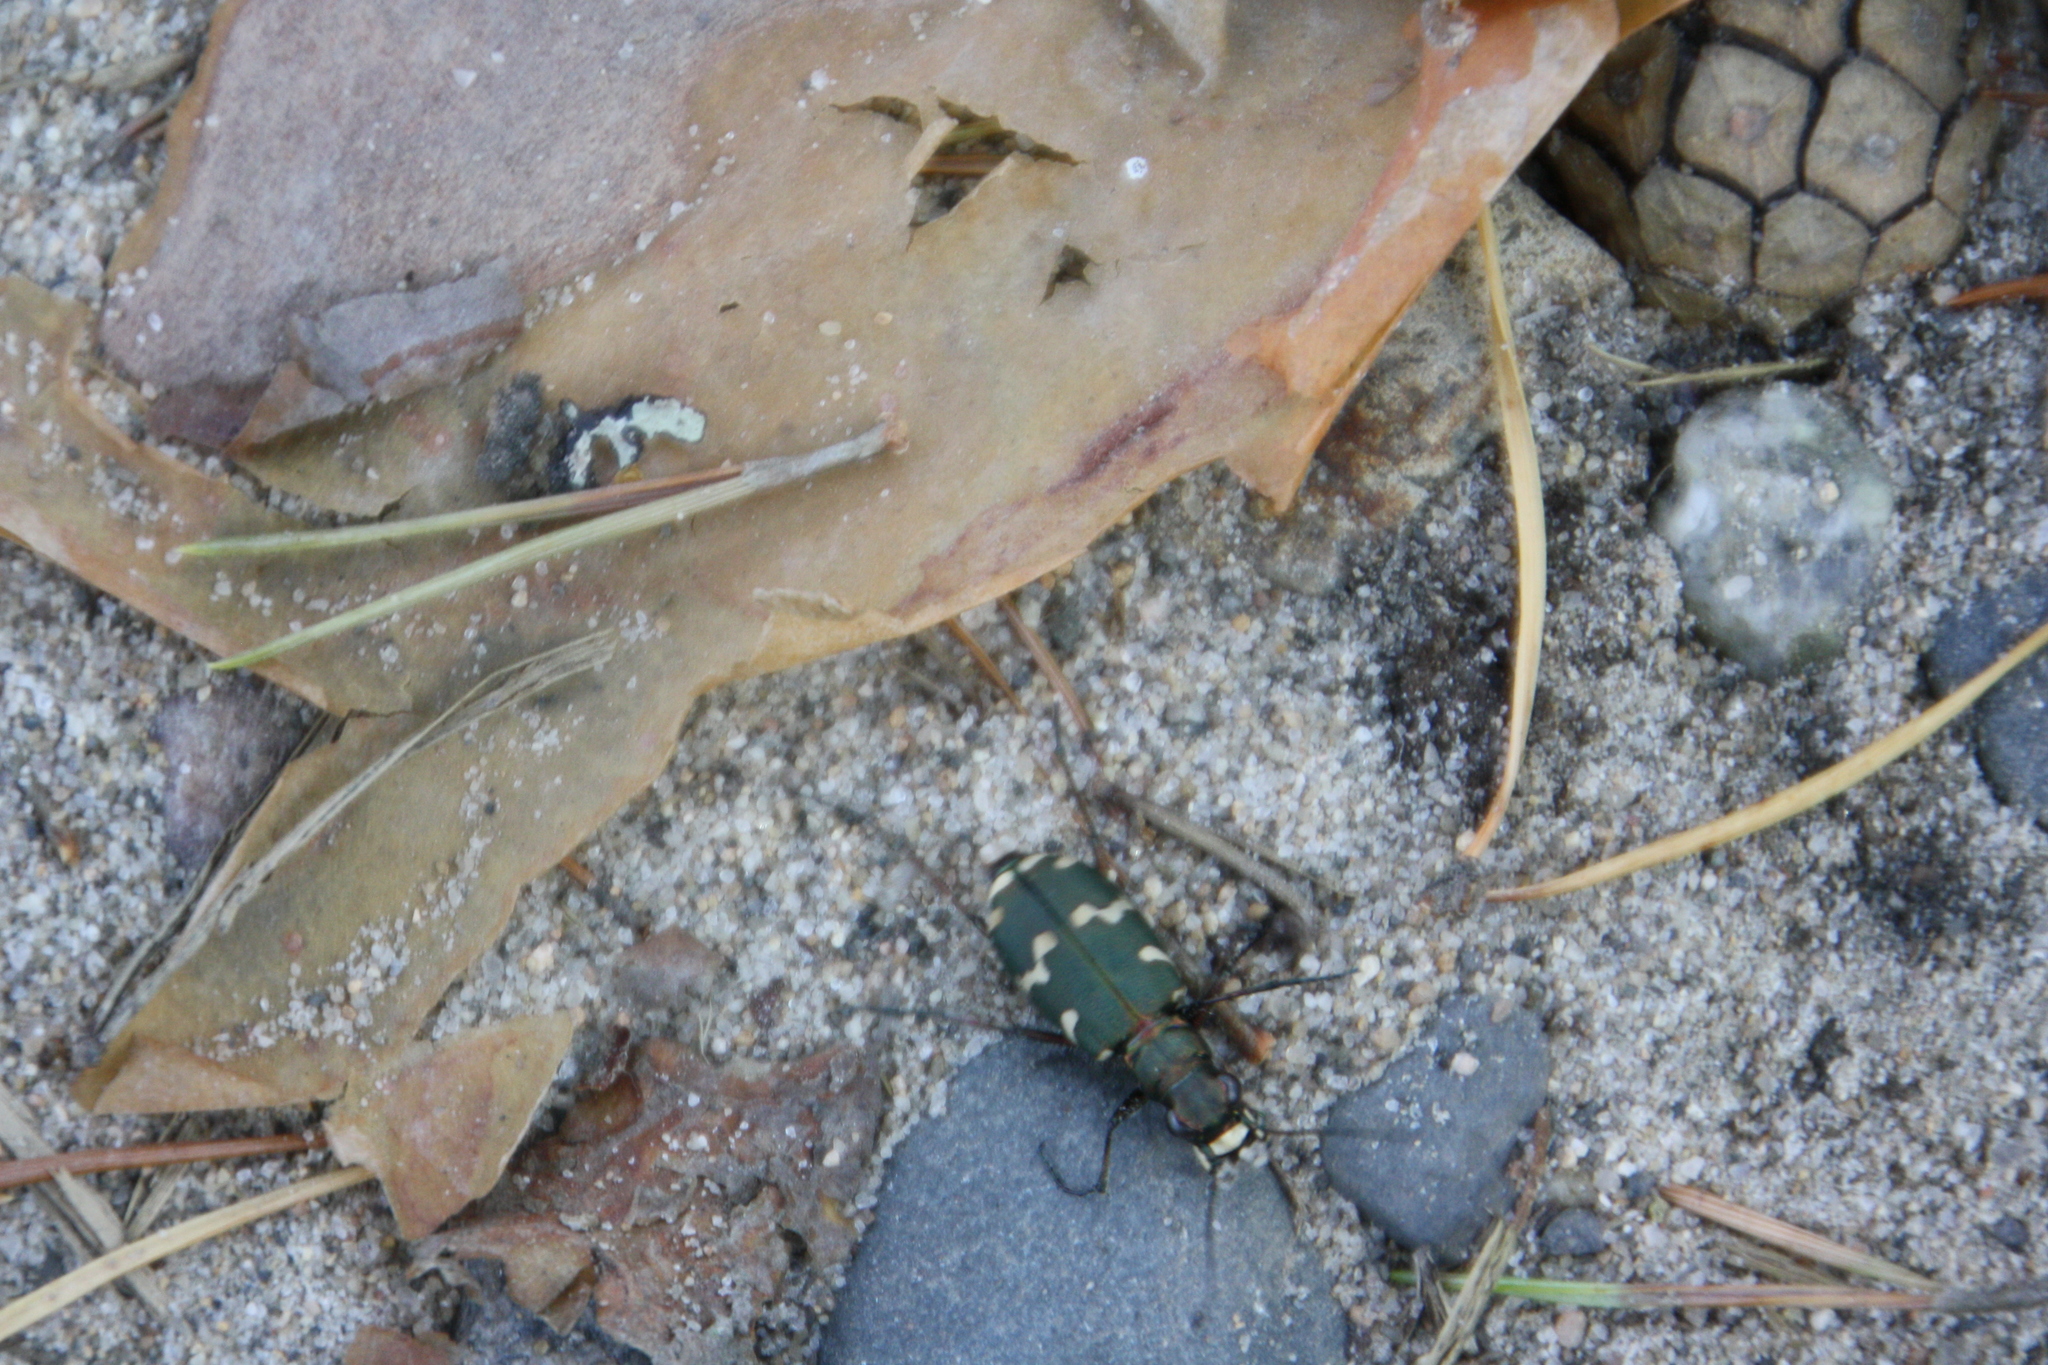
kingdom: Animalia
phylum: Arthropoda
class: Insecta
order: Coleoptera
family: Carabidae
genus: Cicindela
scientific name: Cicindela hybrida
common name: Northern dune tiger beetle
